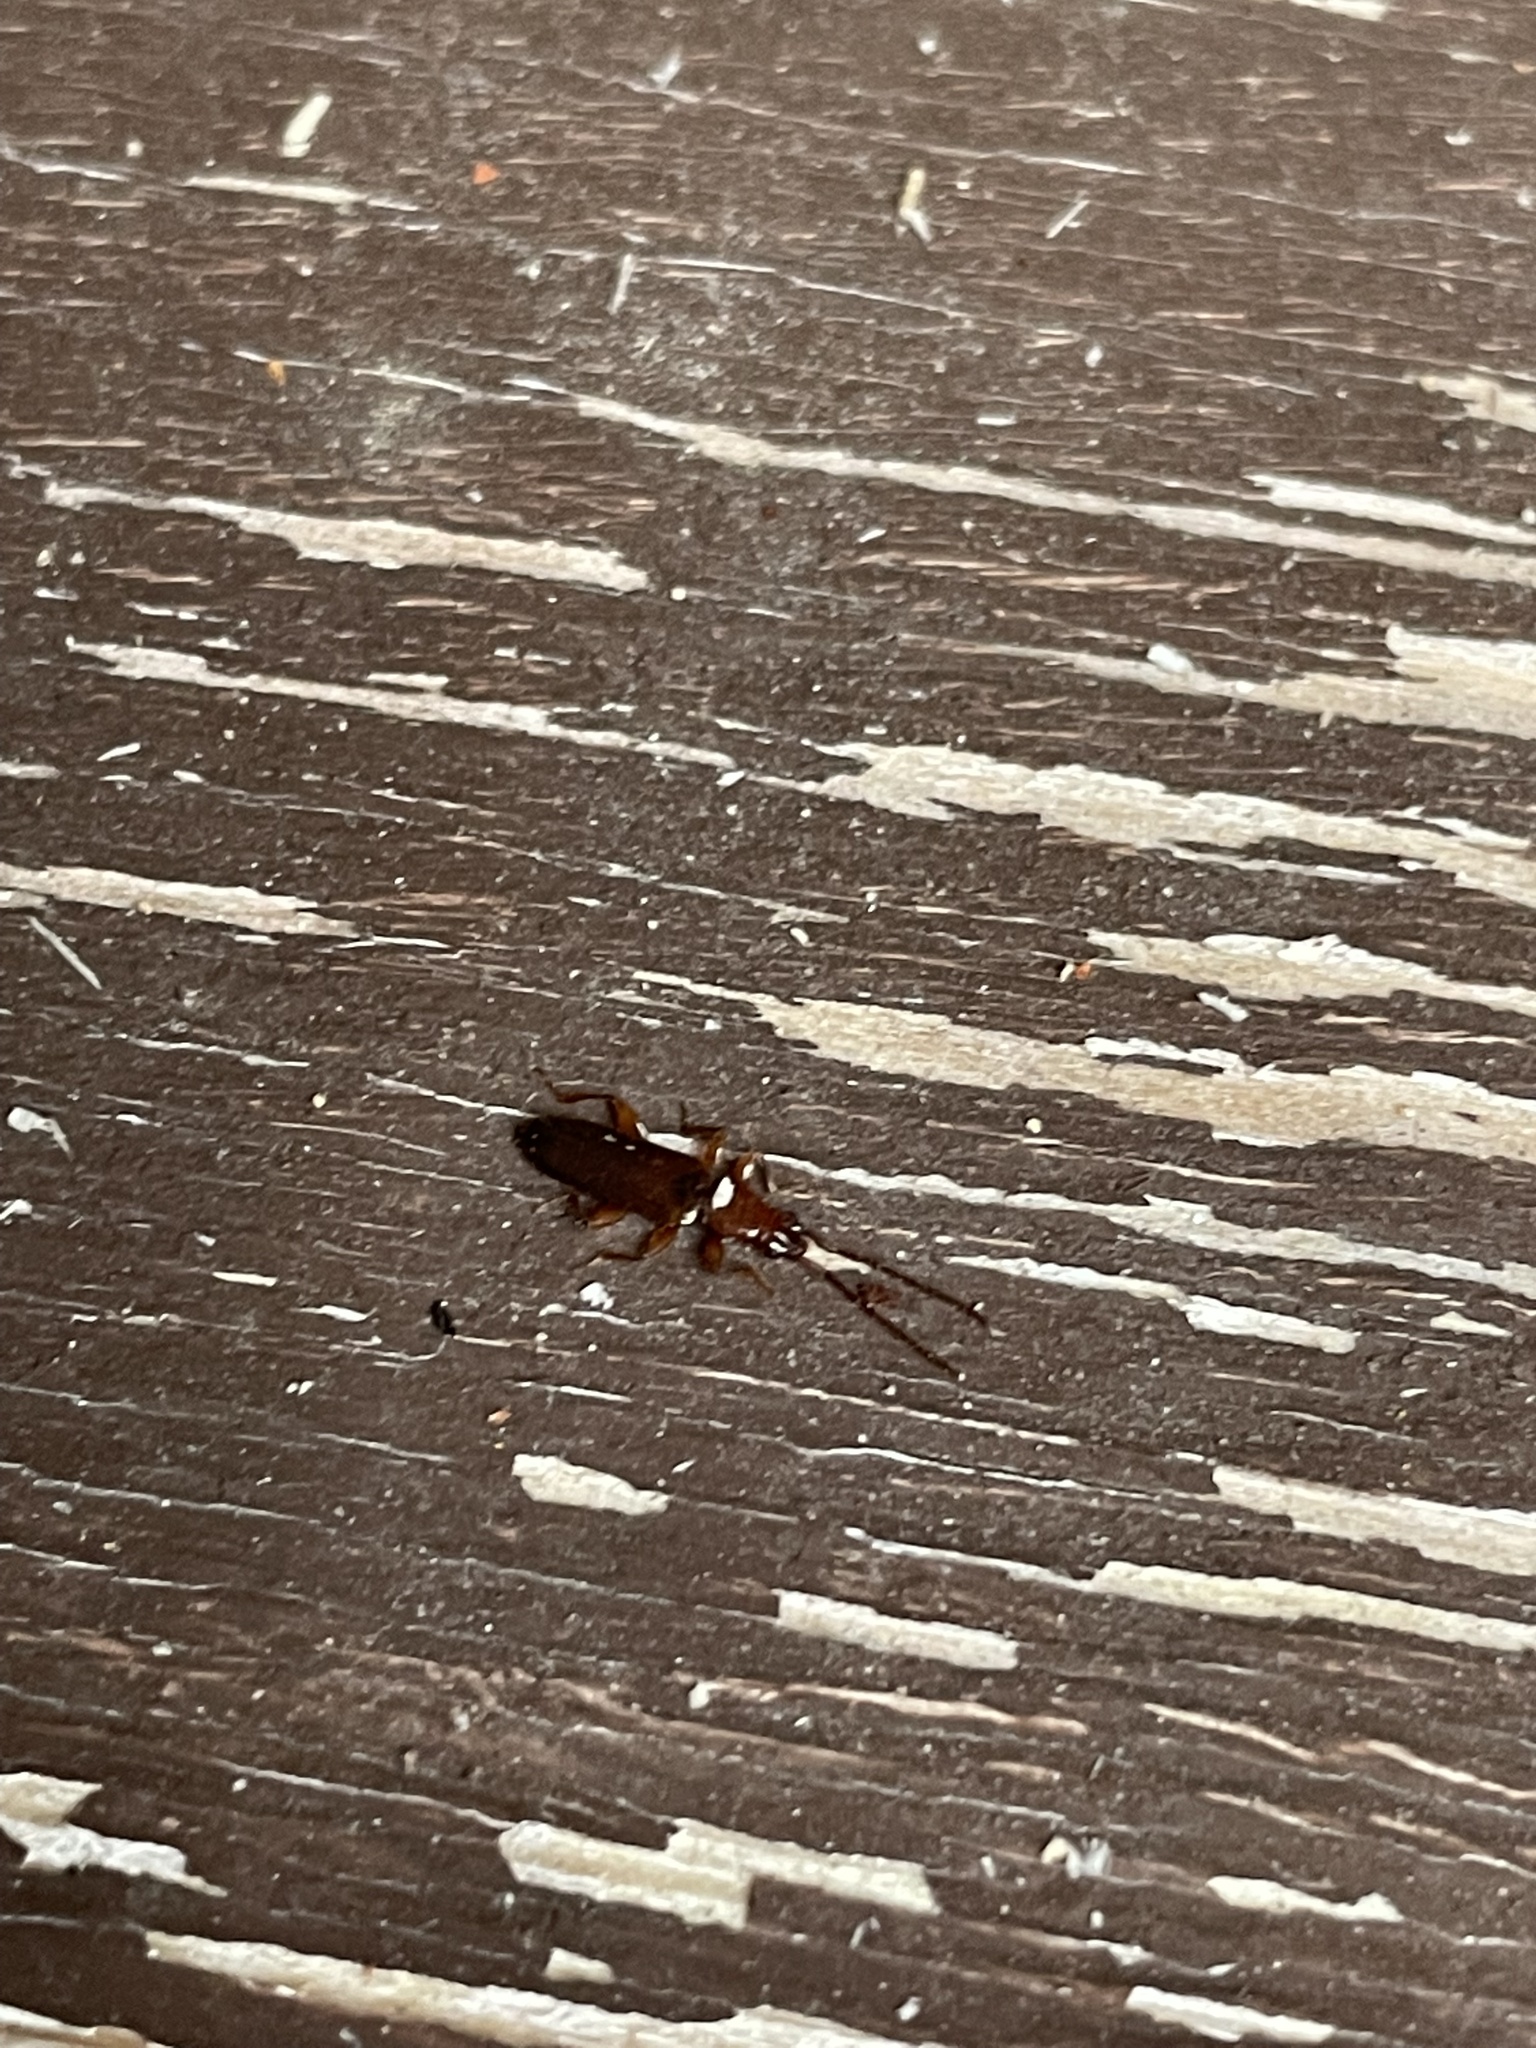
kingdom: Animalia
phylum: Arthropoda
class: Insecta
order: Coleoptera
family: Silvanidae
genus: Dendrophagus
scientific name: Dendrophagus crenatus
